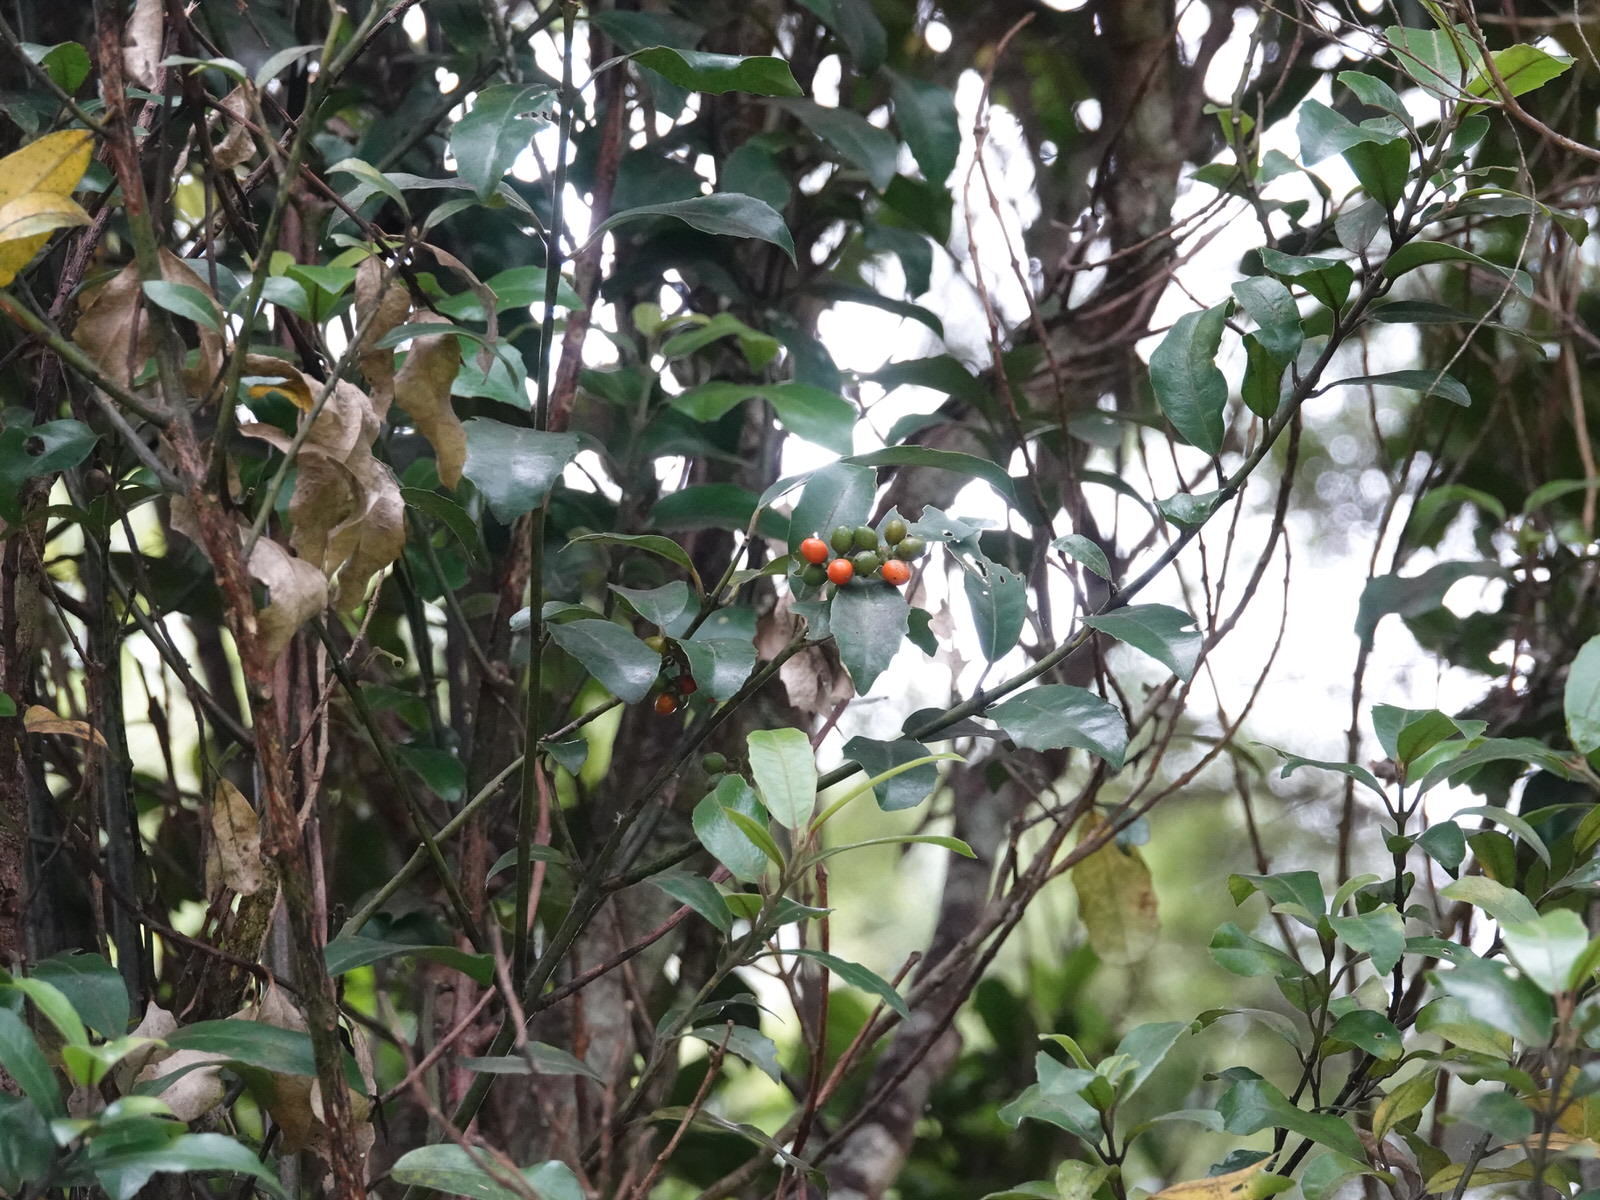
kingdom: Plantae
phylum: Tracheophyta
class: Magnoliopsida
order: Laurales
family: Monimiaceae
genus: Hedycarya
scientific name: Hedycarya arborea
